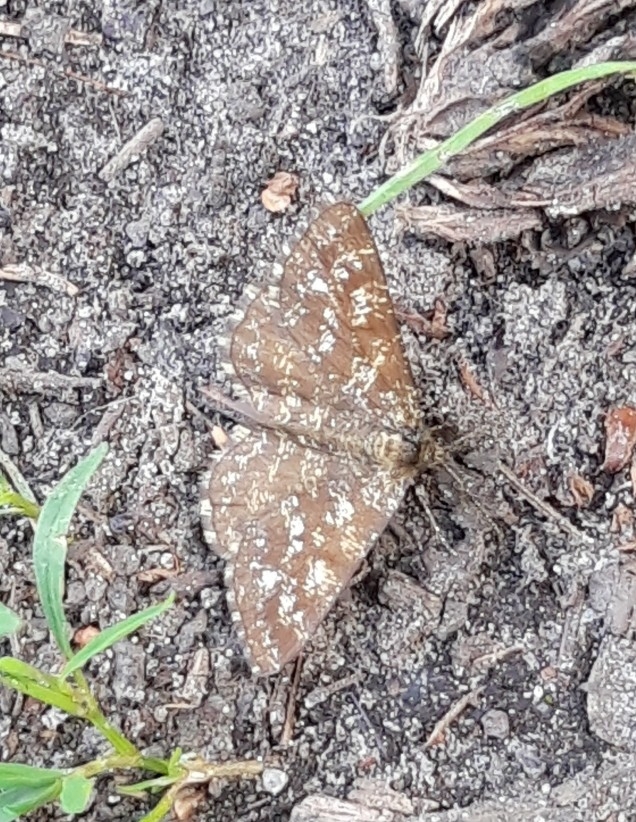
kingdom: Animalia
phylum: Arthropoda
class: Insecta
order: Lepidoptera
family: Geometridae
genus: Ematurga
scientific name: Ematurga atomaria
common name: Common heath
